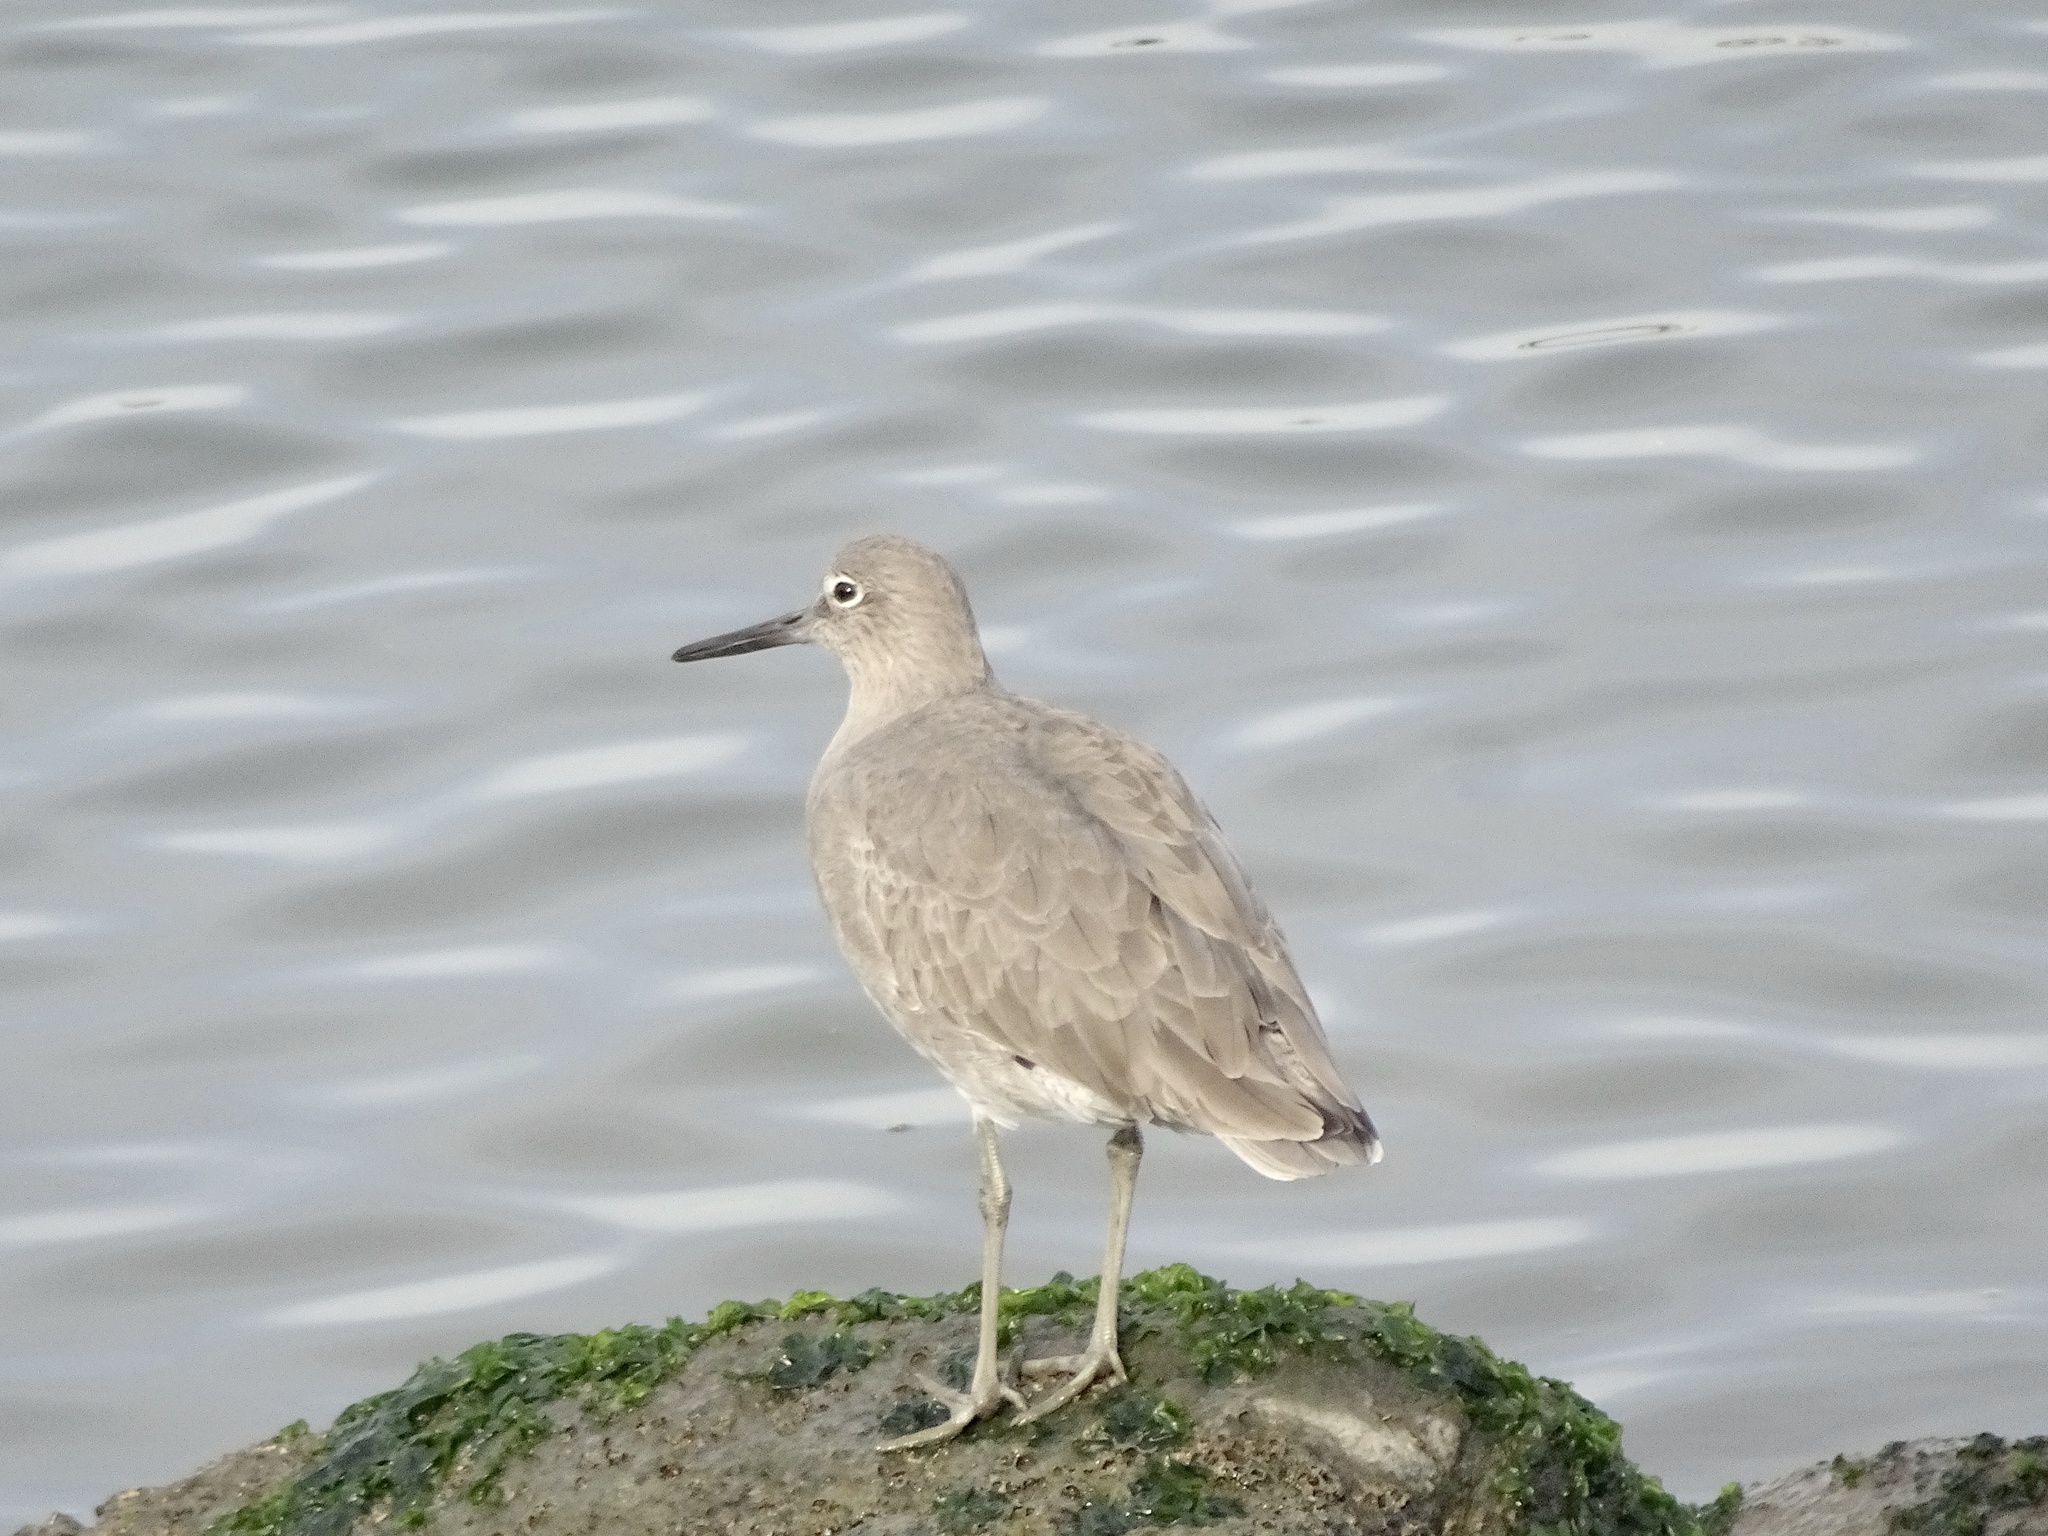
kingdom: Animalia
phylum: Chordata
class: Aves
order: Charadriiformes
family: Scolopacidae
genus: Tringa
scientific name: Tringa semipalmata
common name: Willet
